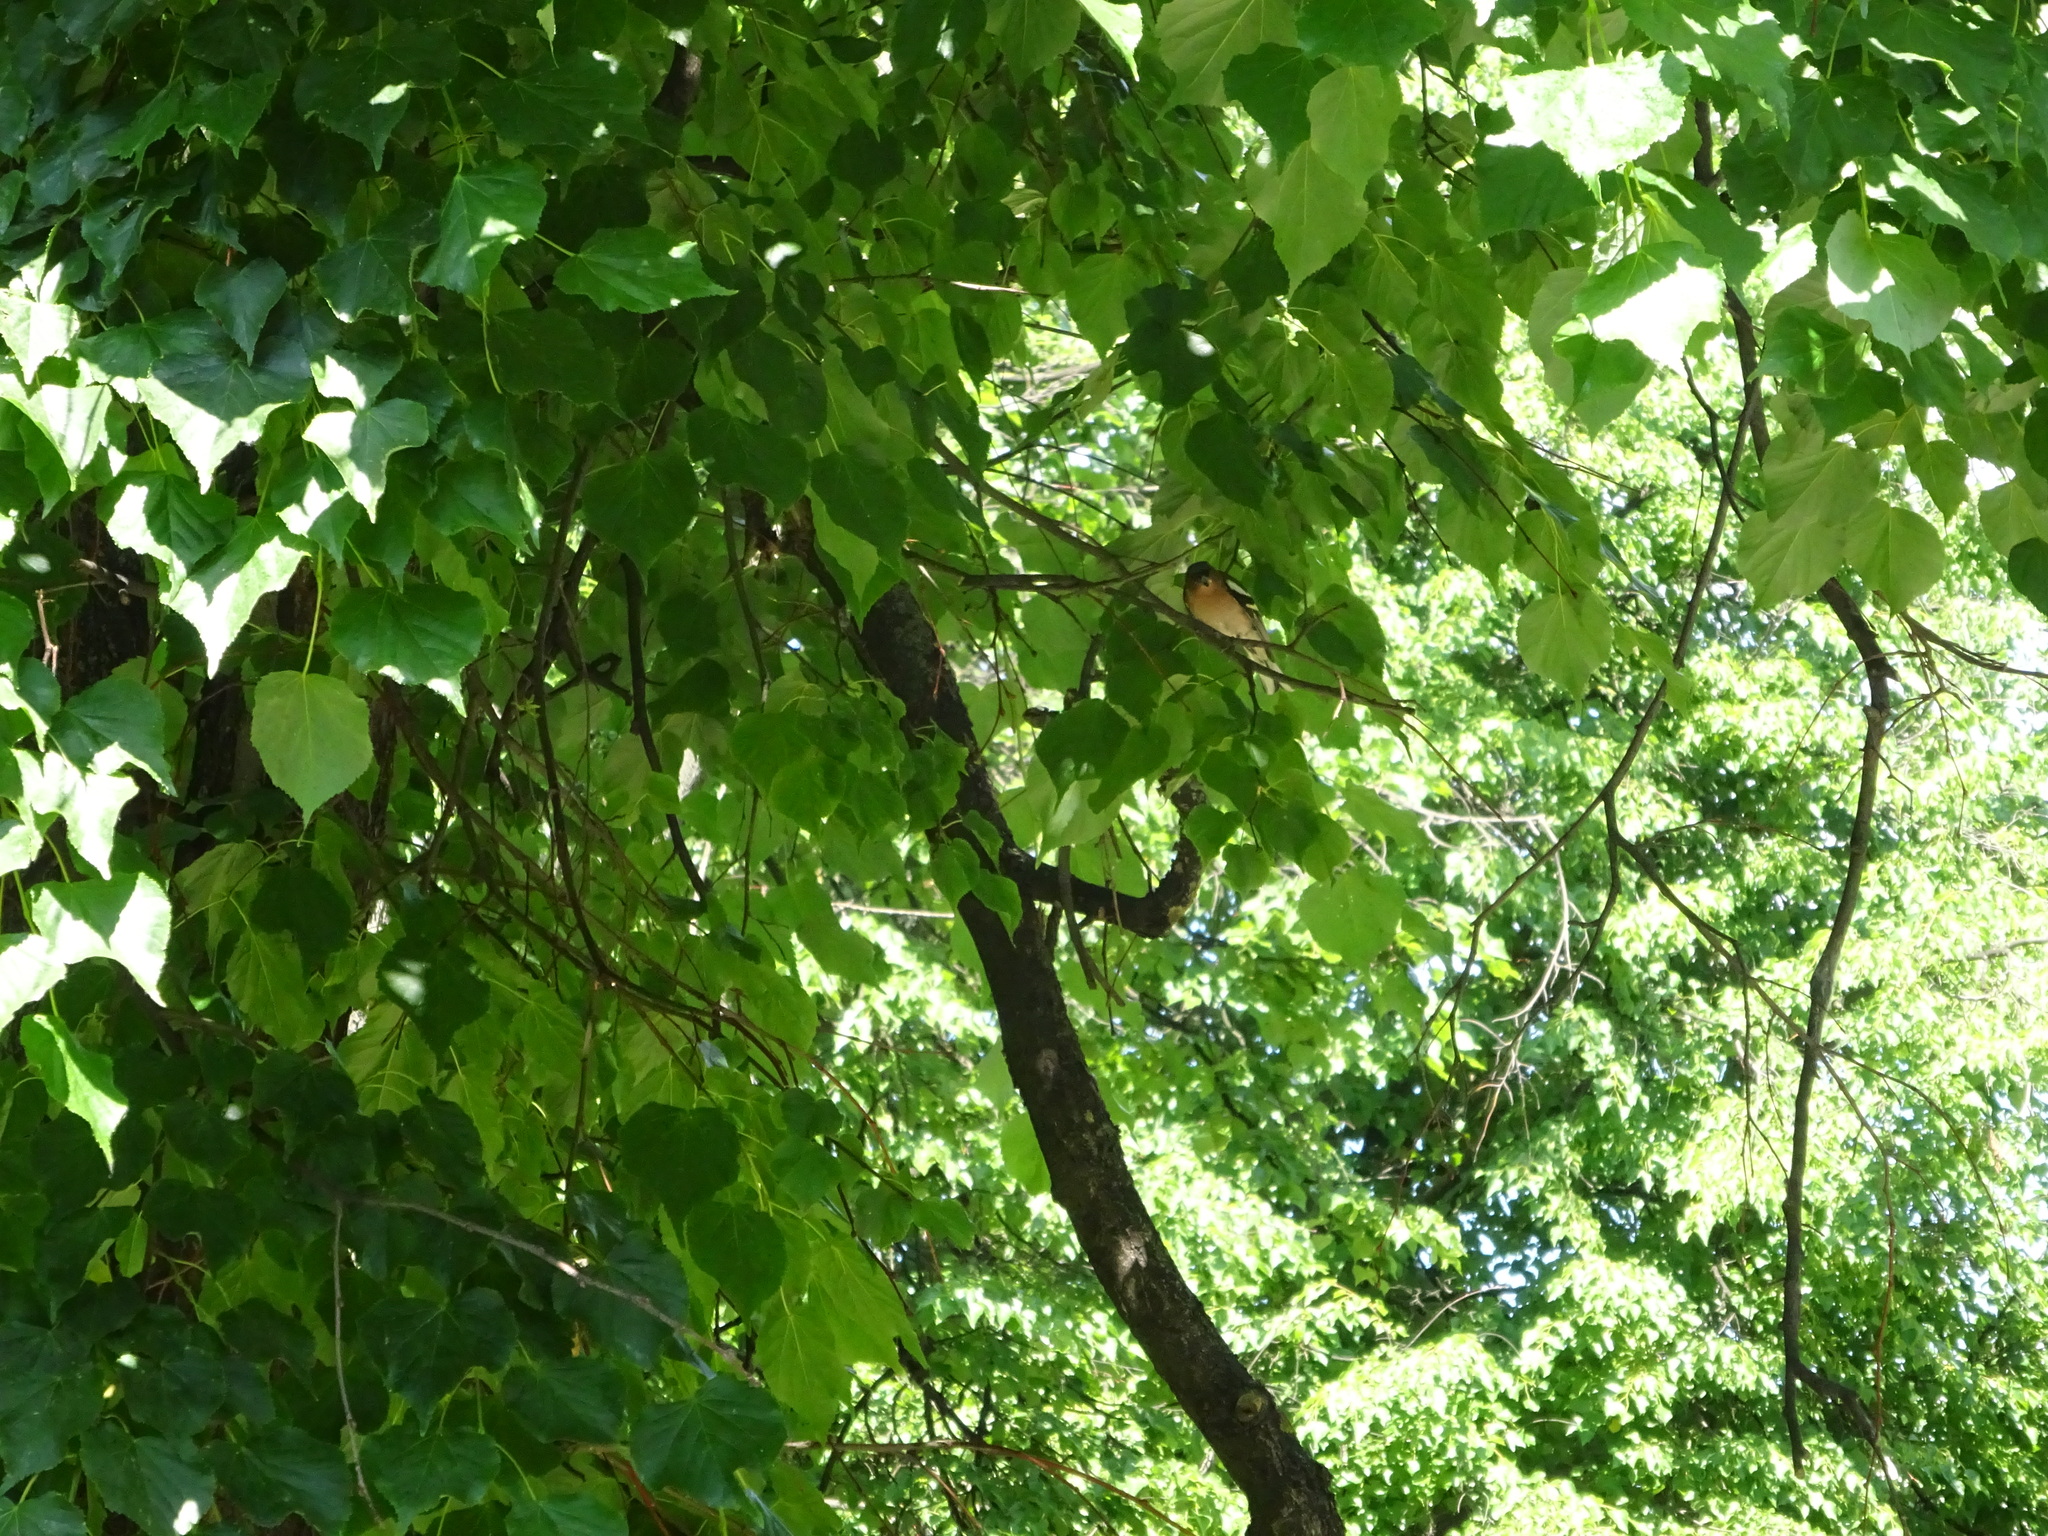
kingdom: Animalia
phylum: Chordata
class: Aves
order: Passeriformes
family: Fringillidae
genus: Fringilla
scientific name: Fringilla coelebs
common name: Common chaffinch
